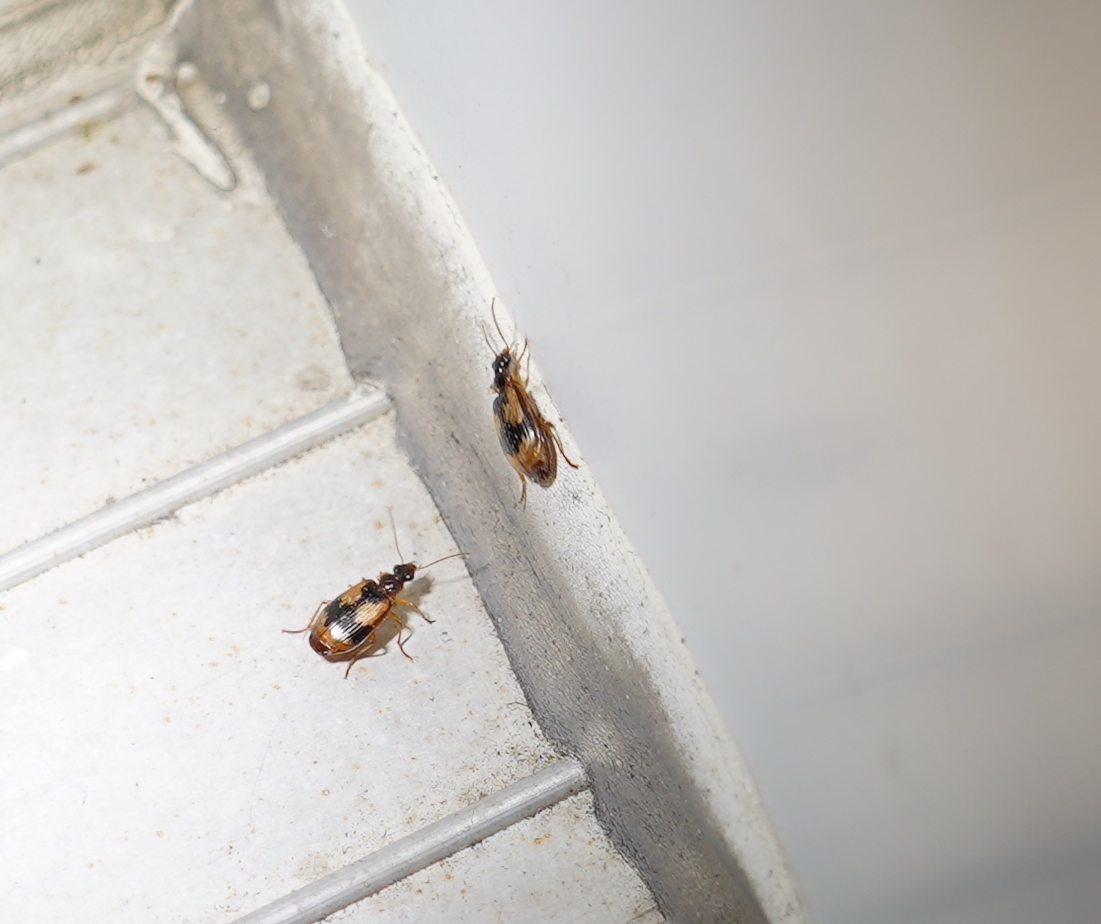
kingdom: Animalia
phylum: Arthropoda
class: Insecta
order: Coleoptera
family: Carabidae
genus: Lebia
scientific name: Lebia fuscata
